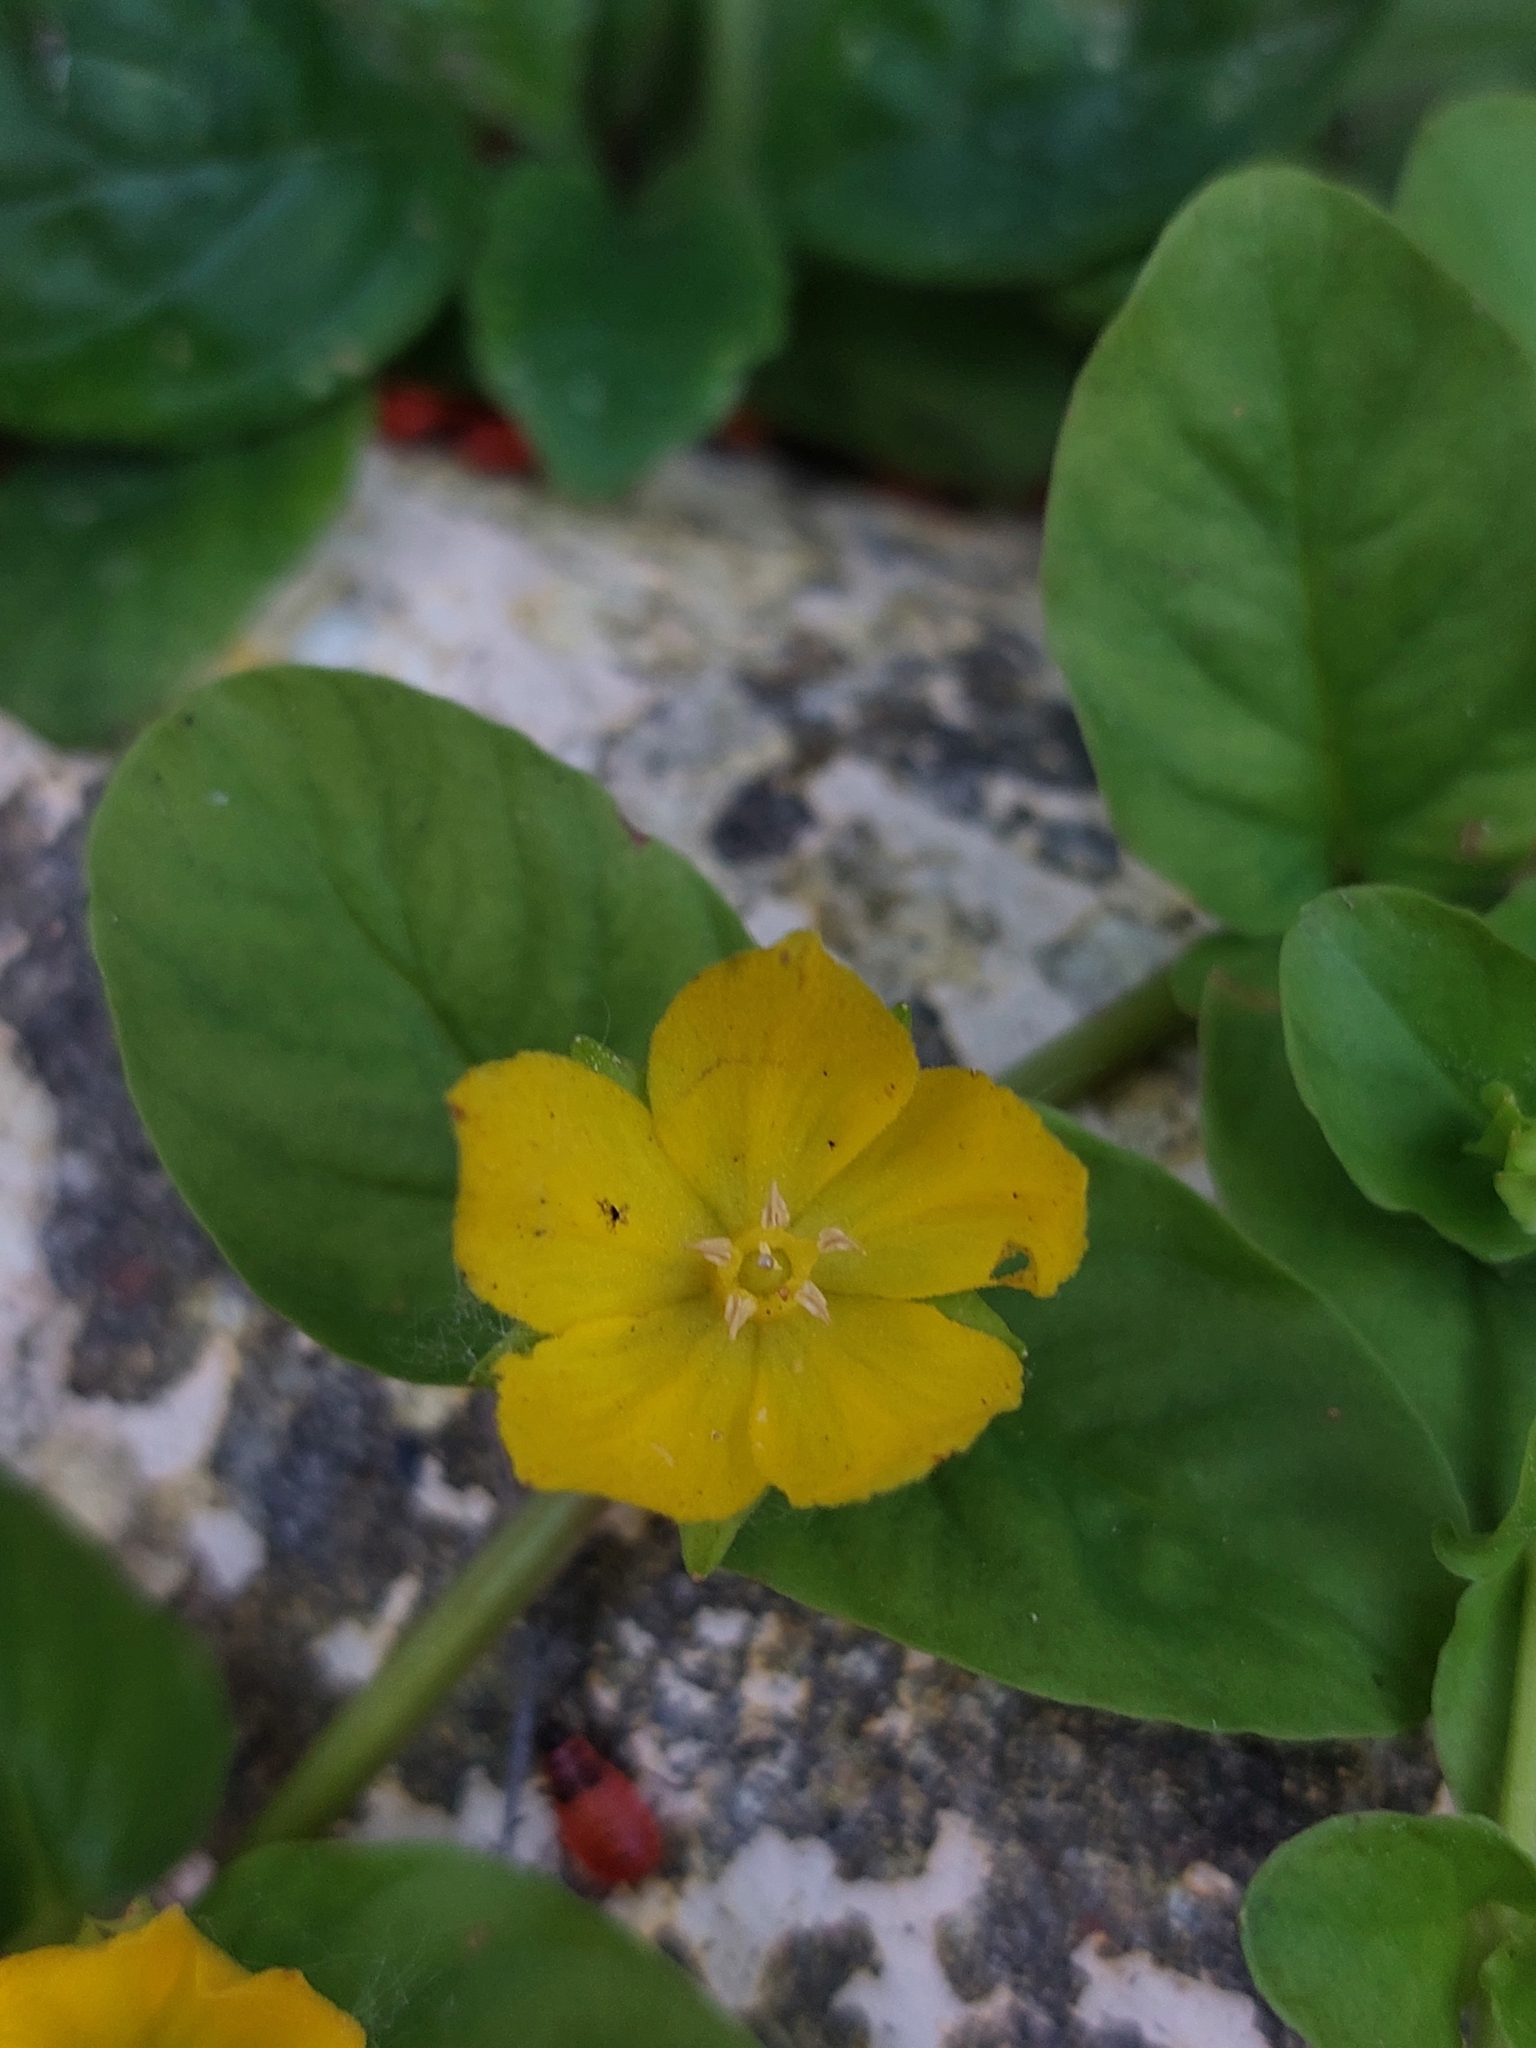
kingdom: Plantae
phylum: Tracheophyta
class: Magnoliopsida
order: Ericales
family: Primulaceae
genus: Lysimachia
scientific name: Lysimachia nummularia
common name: Moneywort
